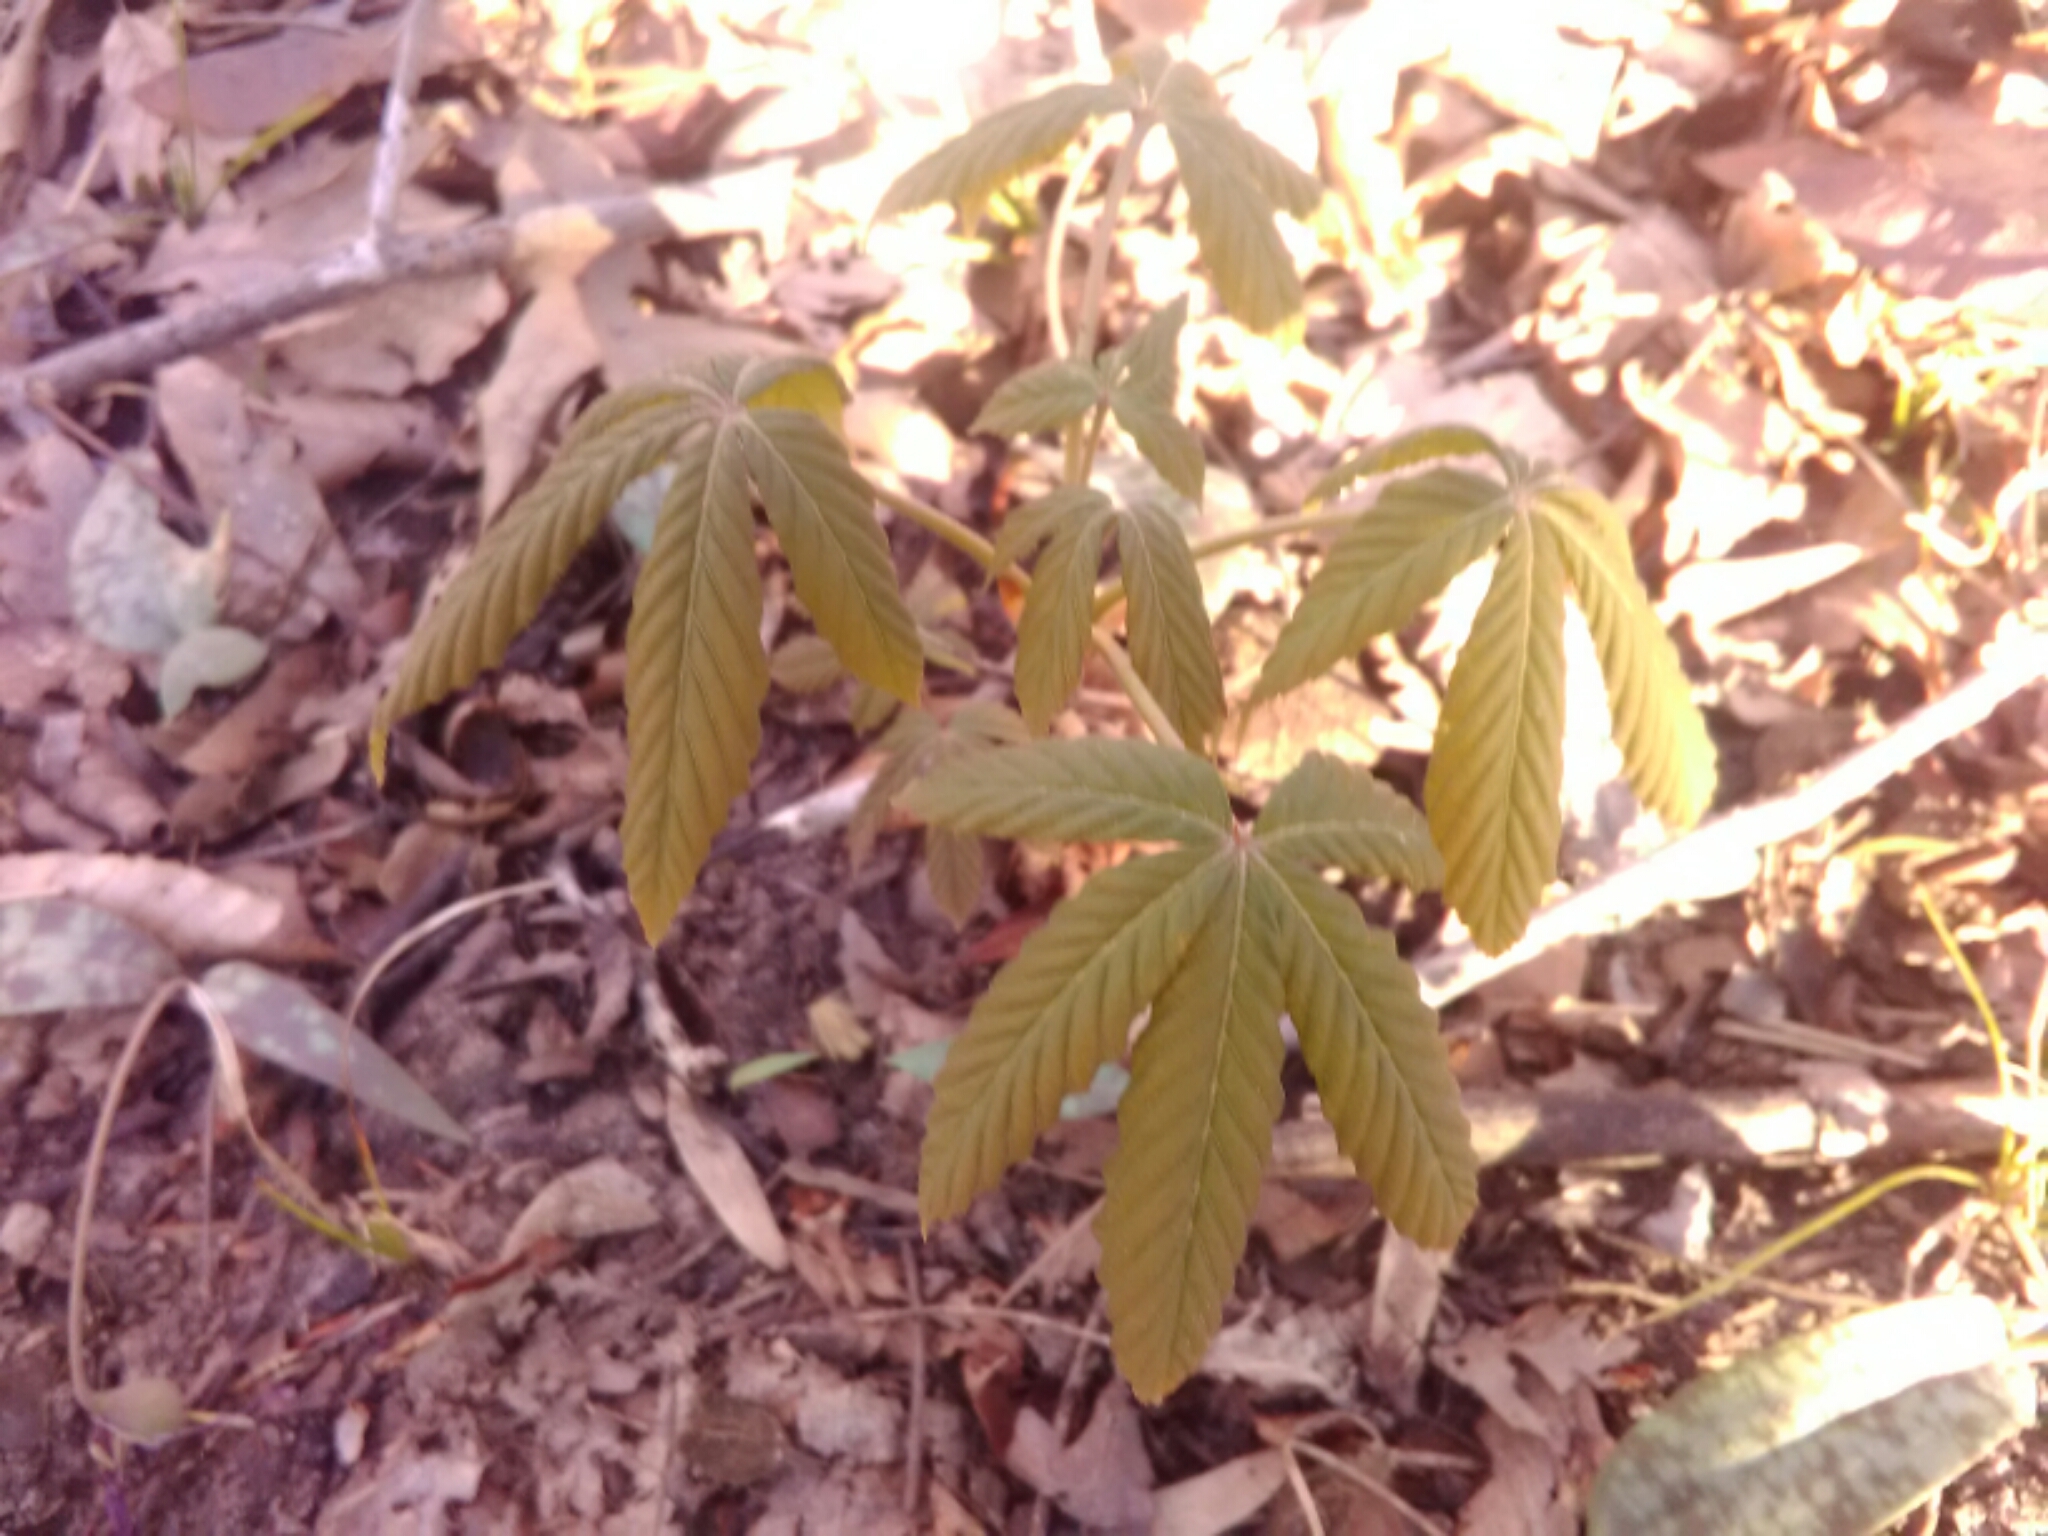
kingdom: Plantae
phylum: Tracheophyta
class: Magnoliopsida
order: Sapindales
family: Sapindaceae
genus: Aesculus
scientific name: Aesculus sylvatica
